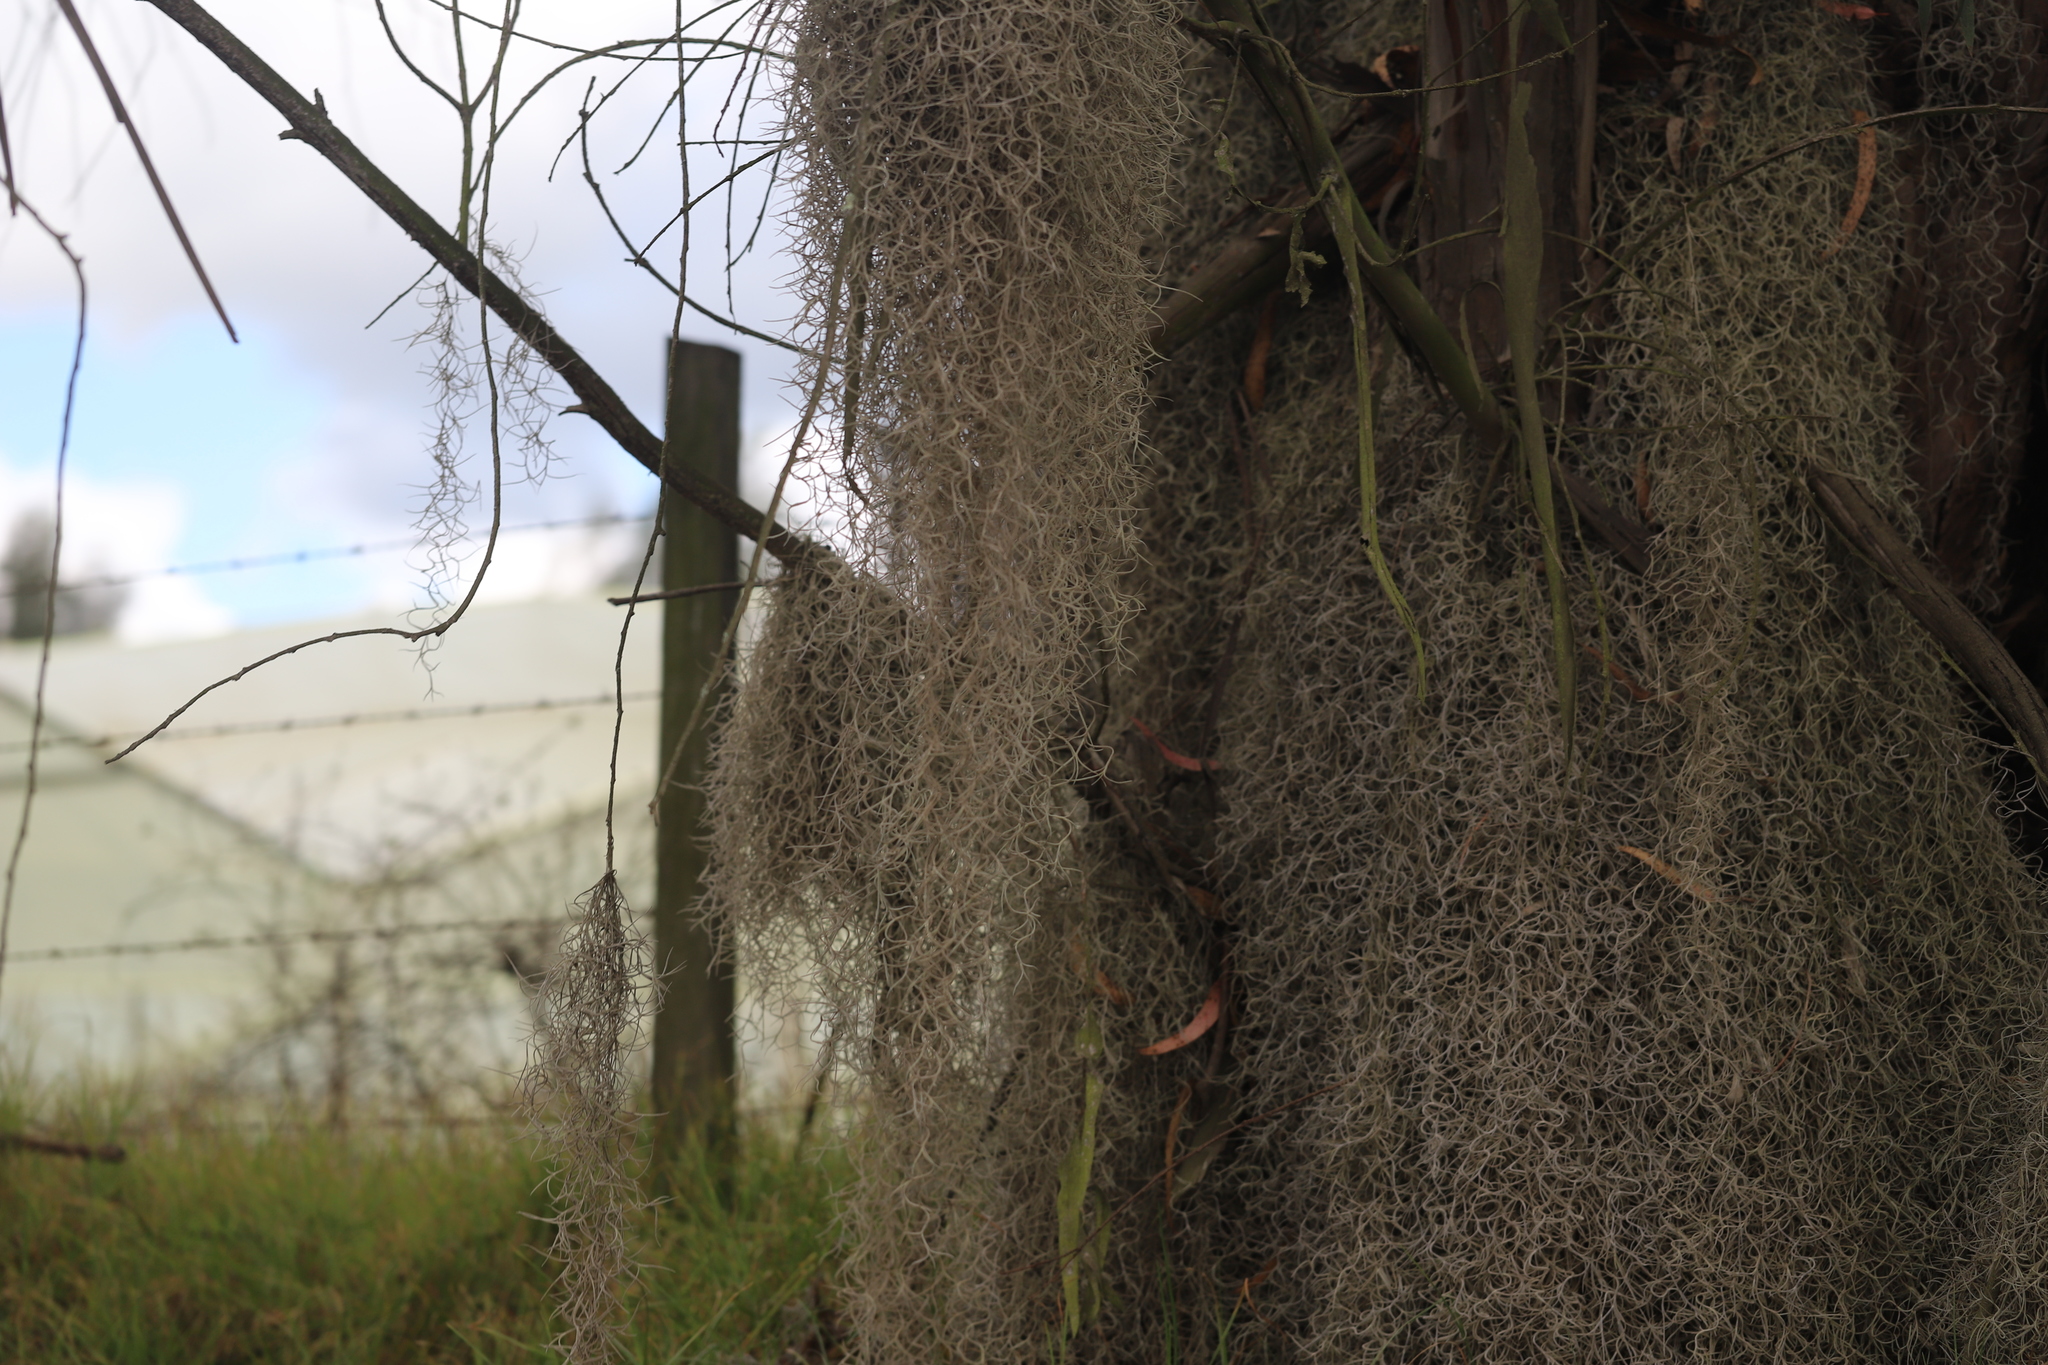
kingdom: Plantae
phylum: Tracheophyta
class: Liliopsida
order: Poales
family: Bromeliaceae
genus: Tillandsia
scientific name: Tillandsia usneoides
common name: Spanish moss
